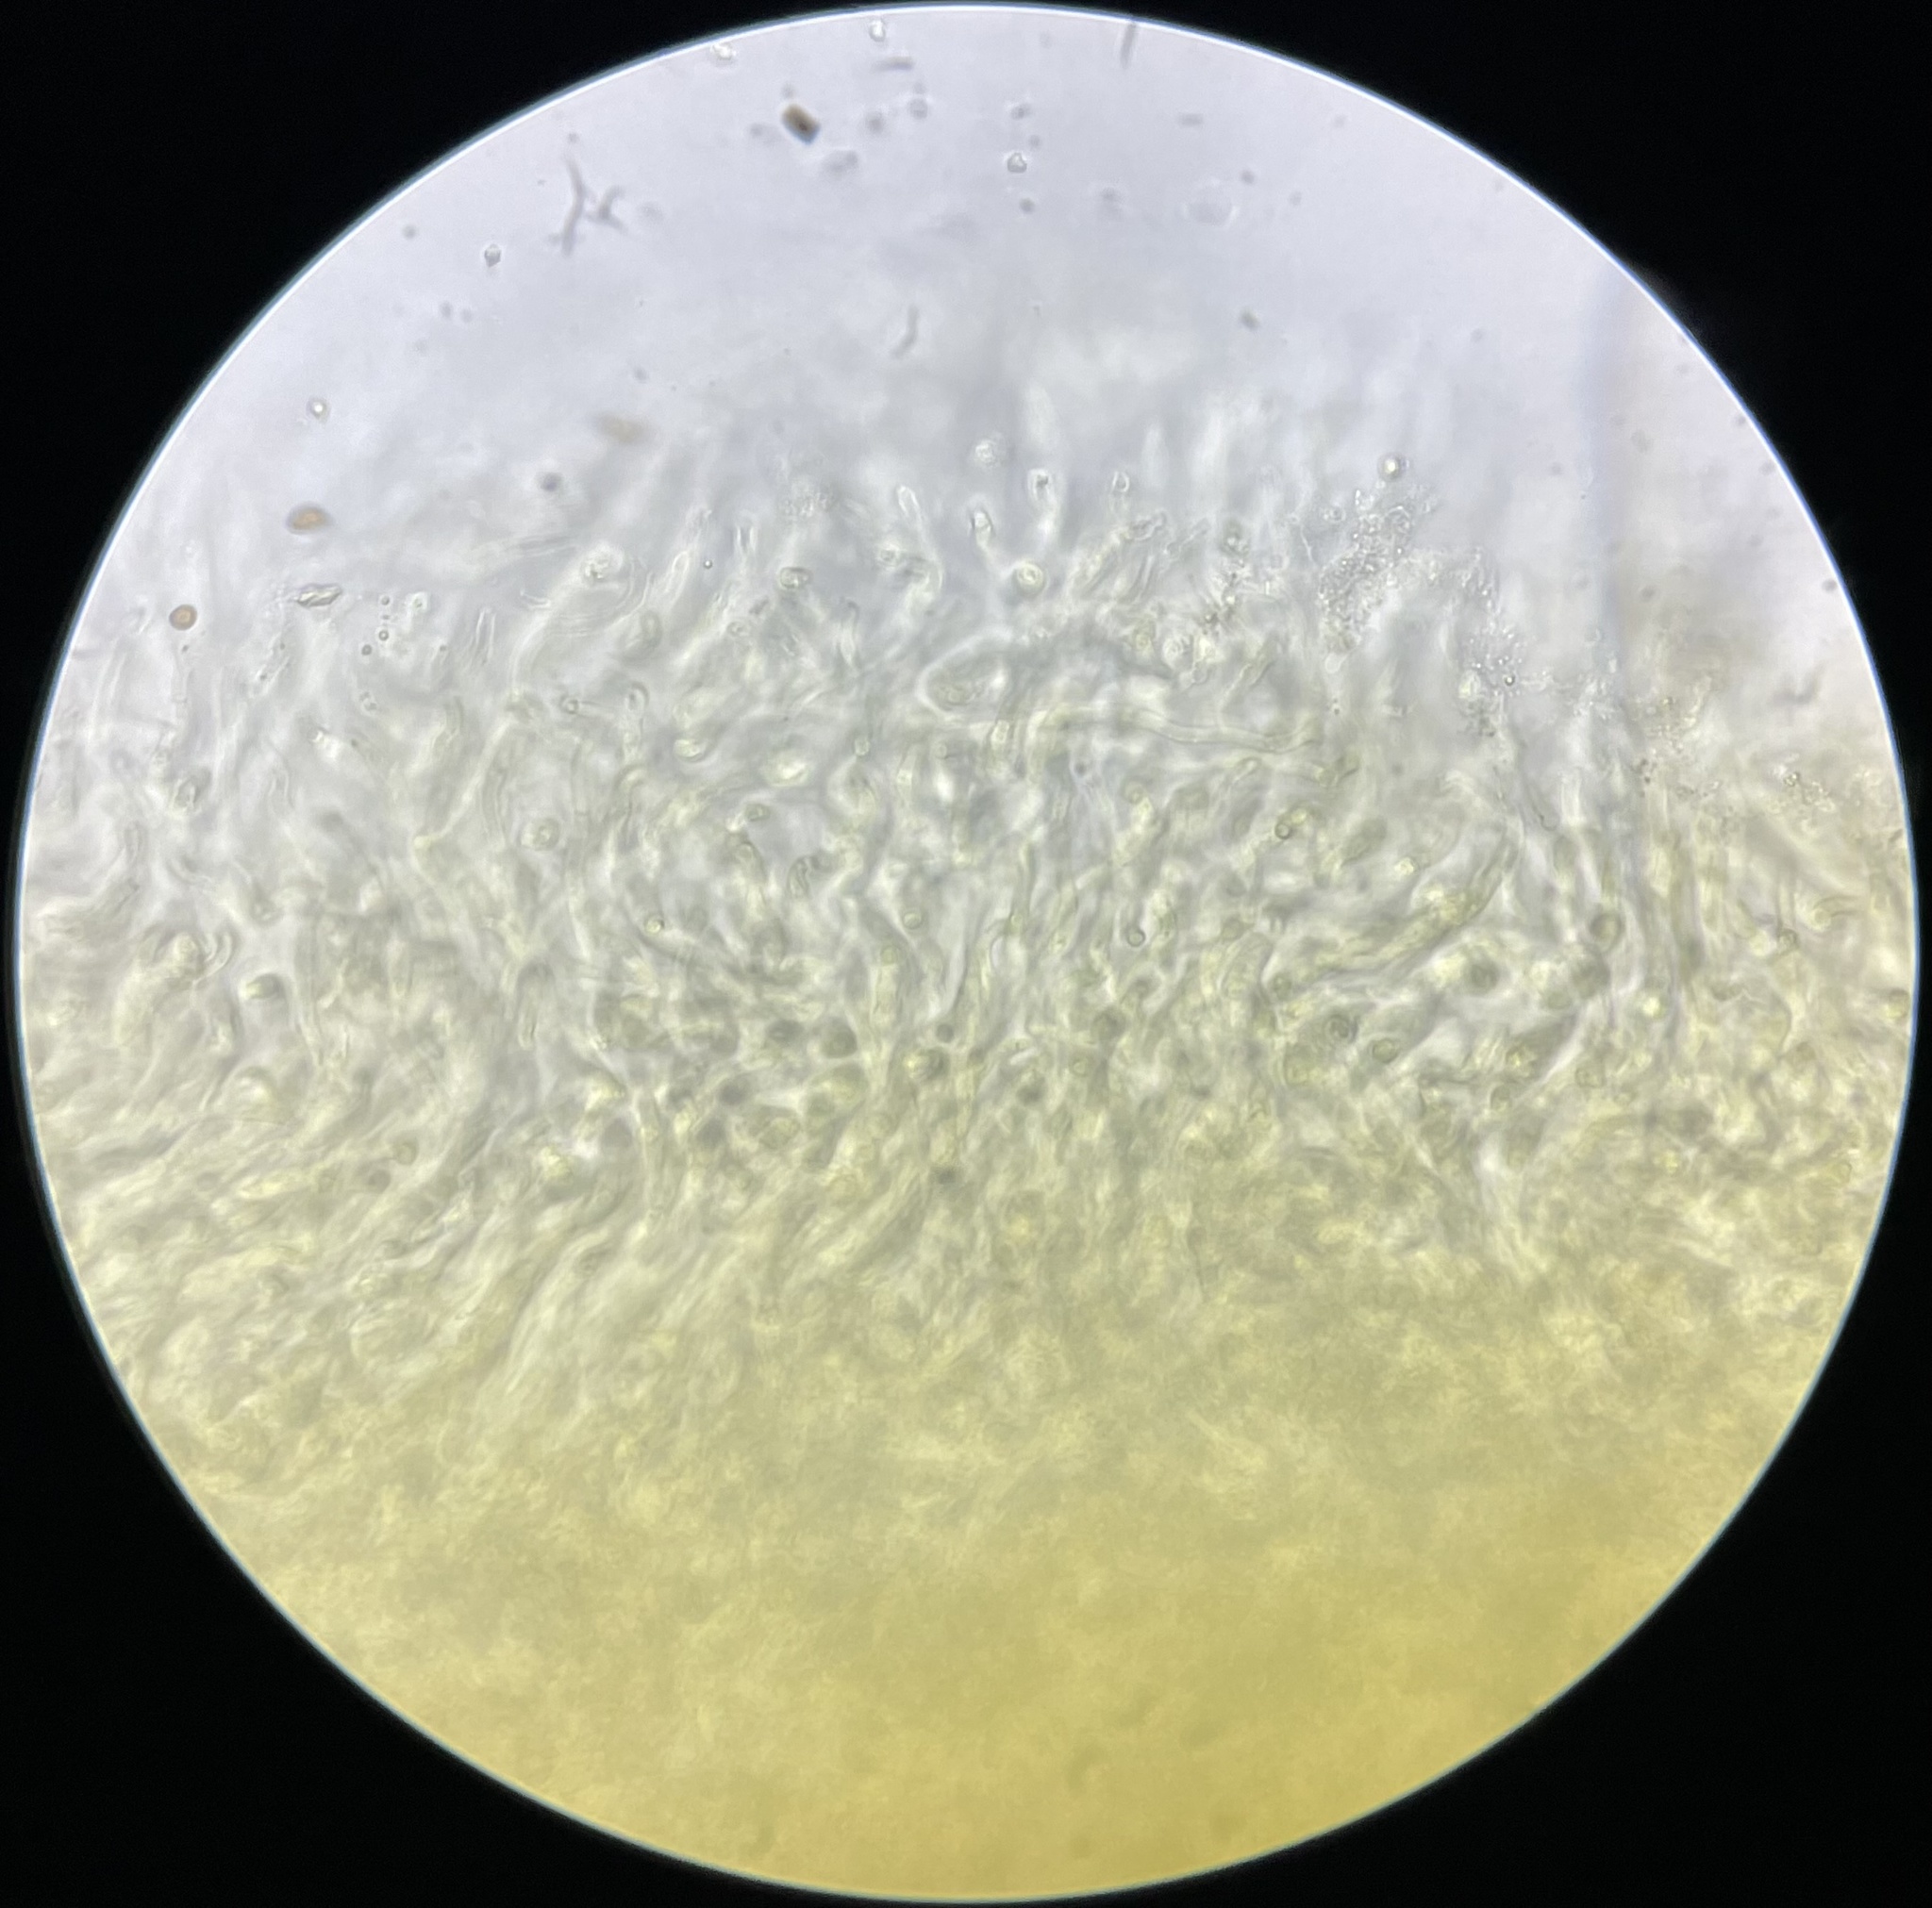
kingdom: Fungi
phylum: Basidiomycota
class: Agaricomycetes
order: Agaricales
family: Tricholomataceae
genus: Tricholoma
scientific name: Tricholoma equestre
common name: Yellow knight
